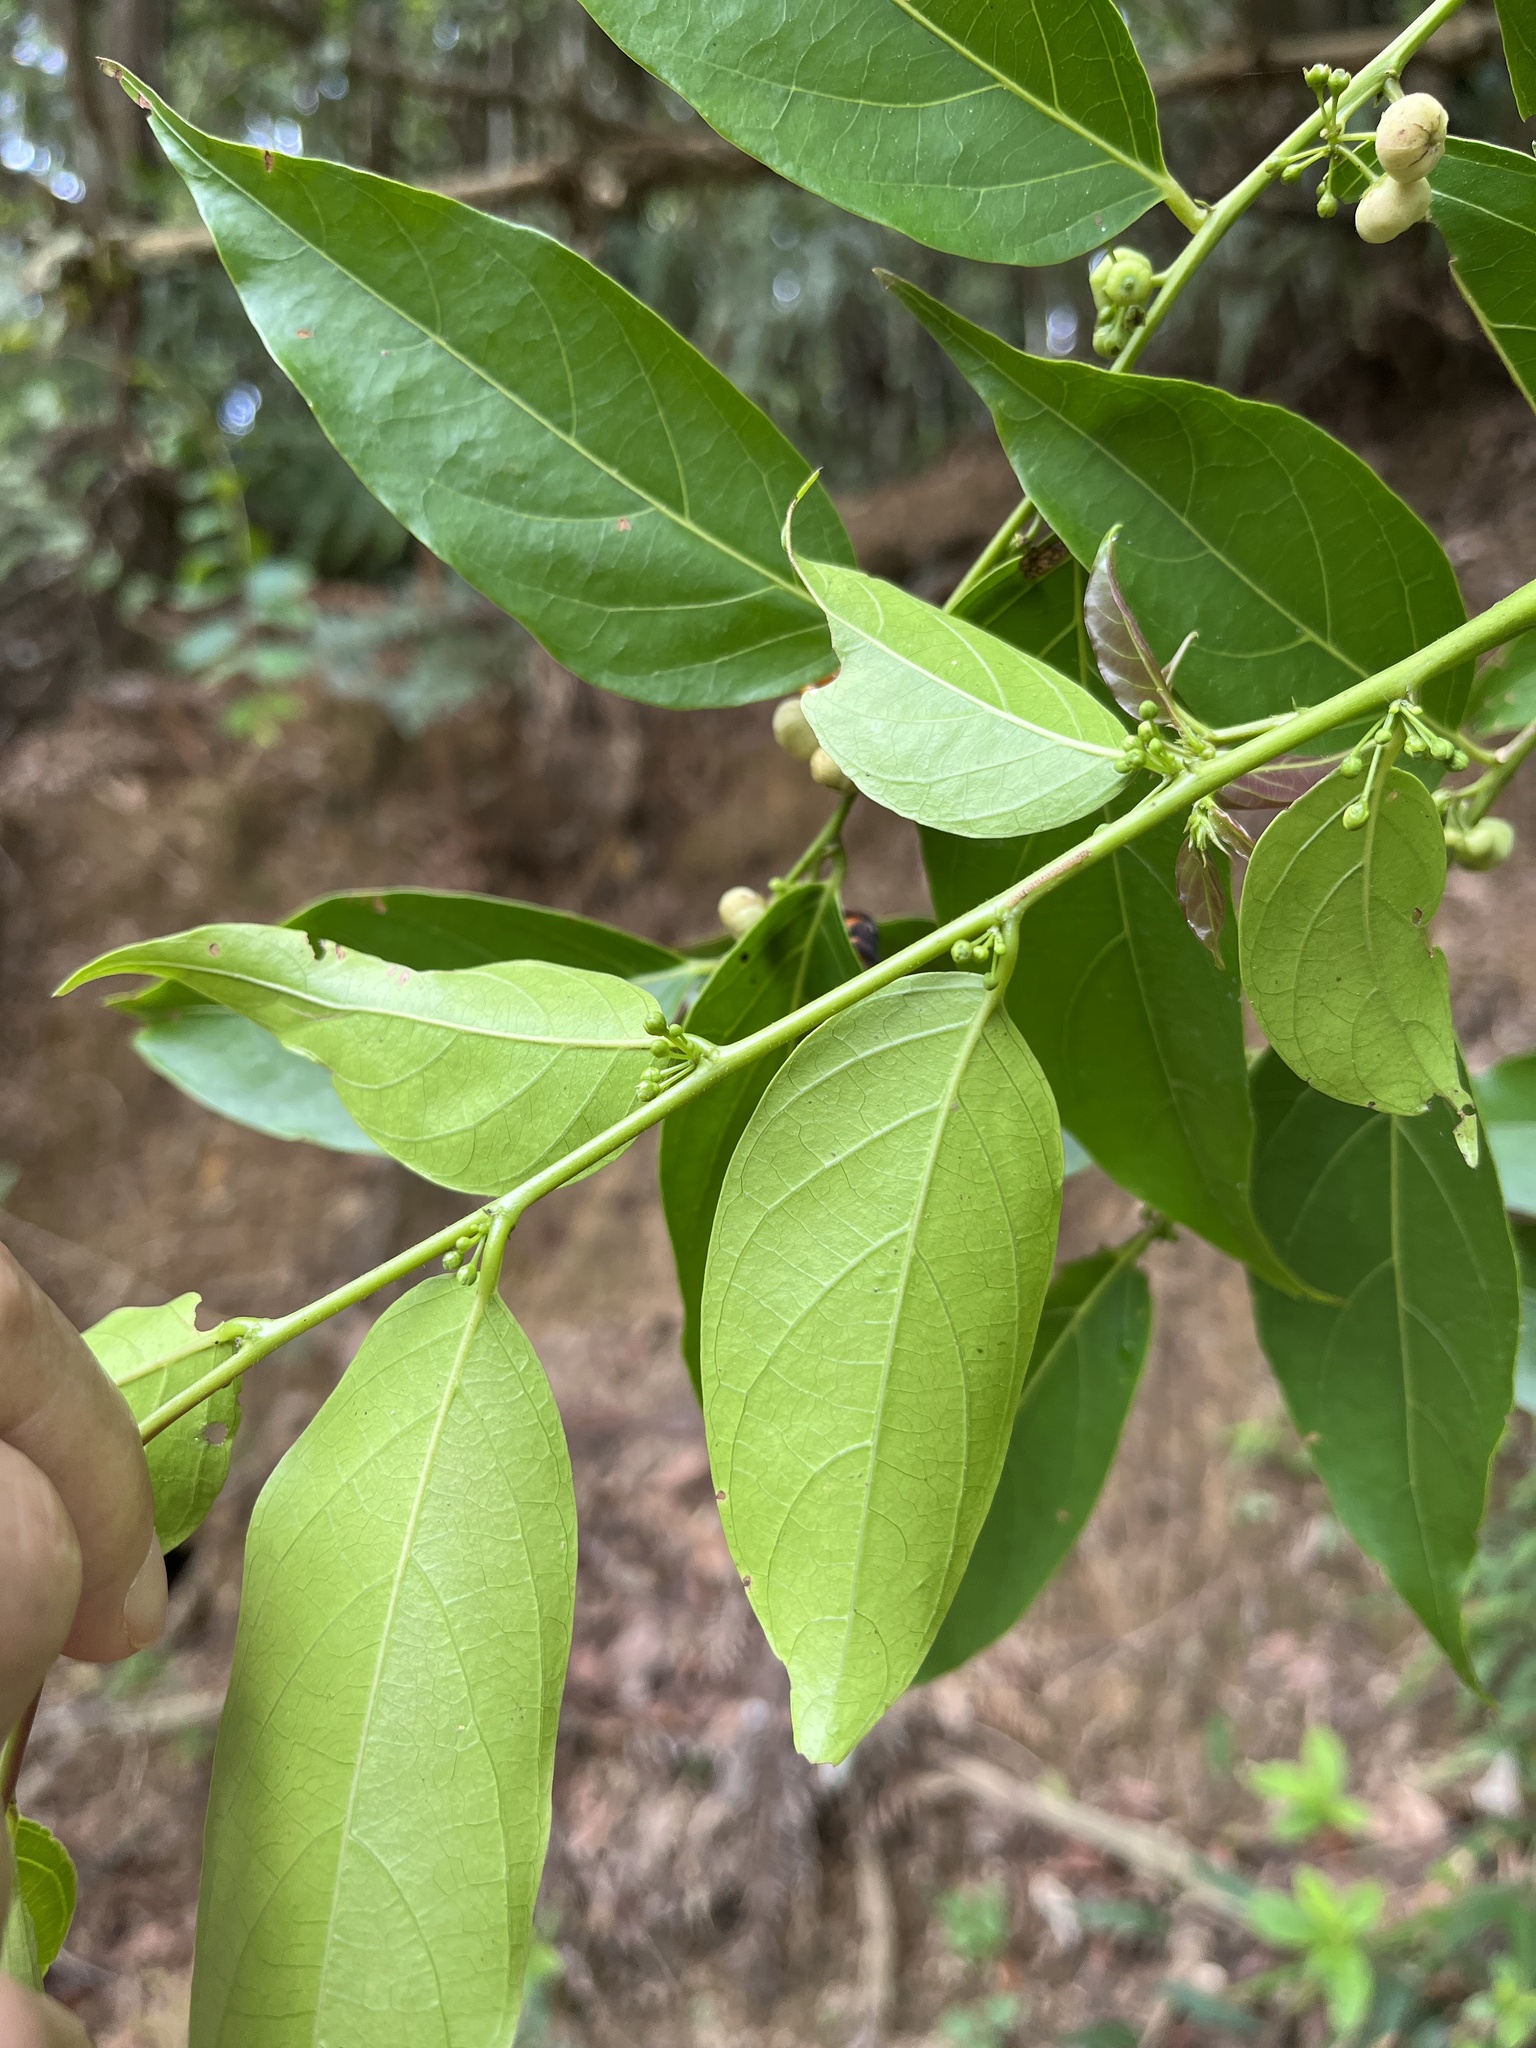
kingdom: Plantae
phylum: Tracheophyta
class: Magnoliopsida
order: Malpighiales
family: Phyllanthaceae
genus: Glochidion
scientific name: Glochidion zeylanicum
